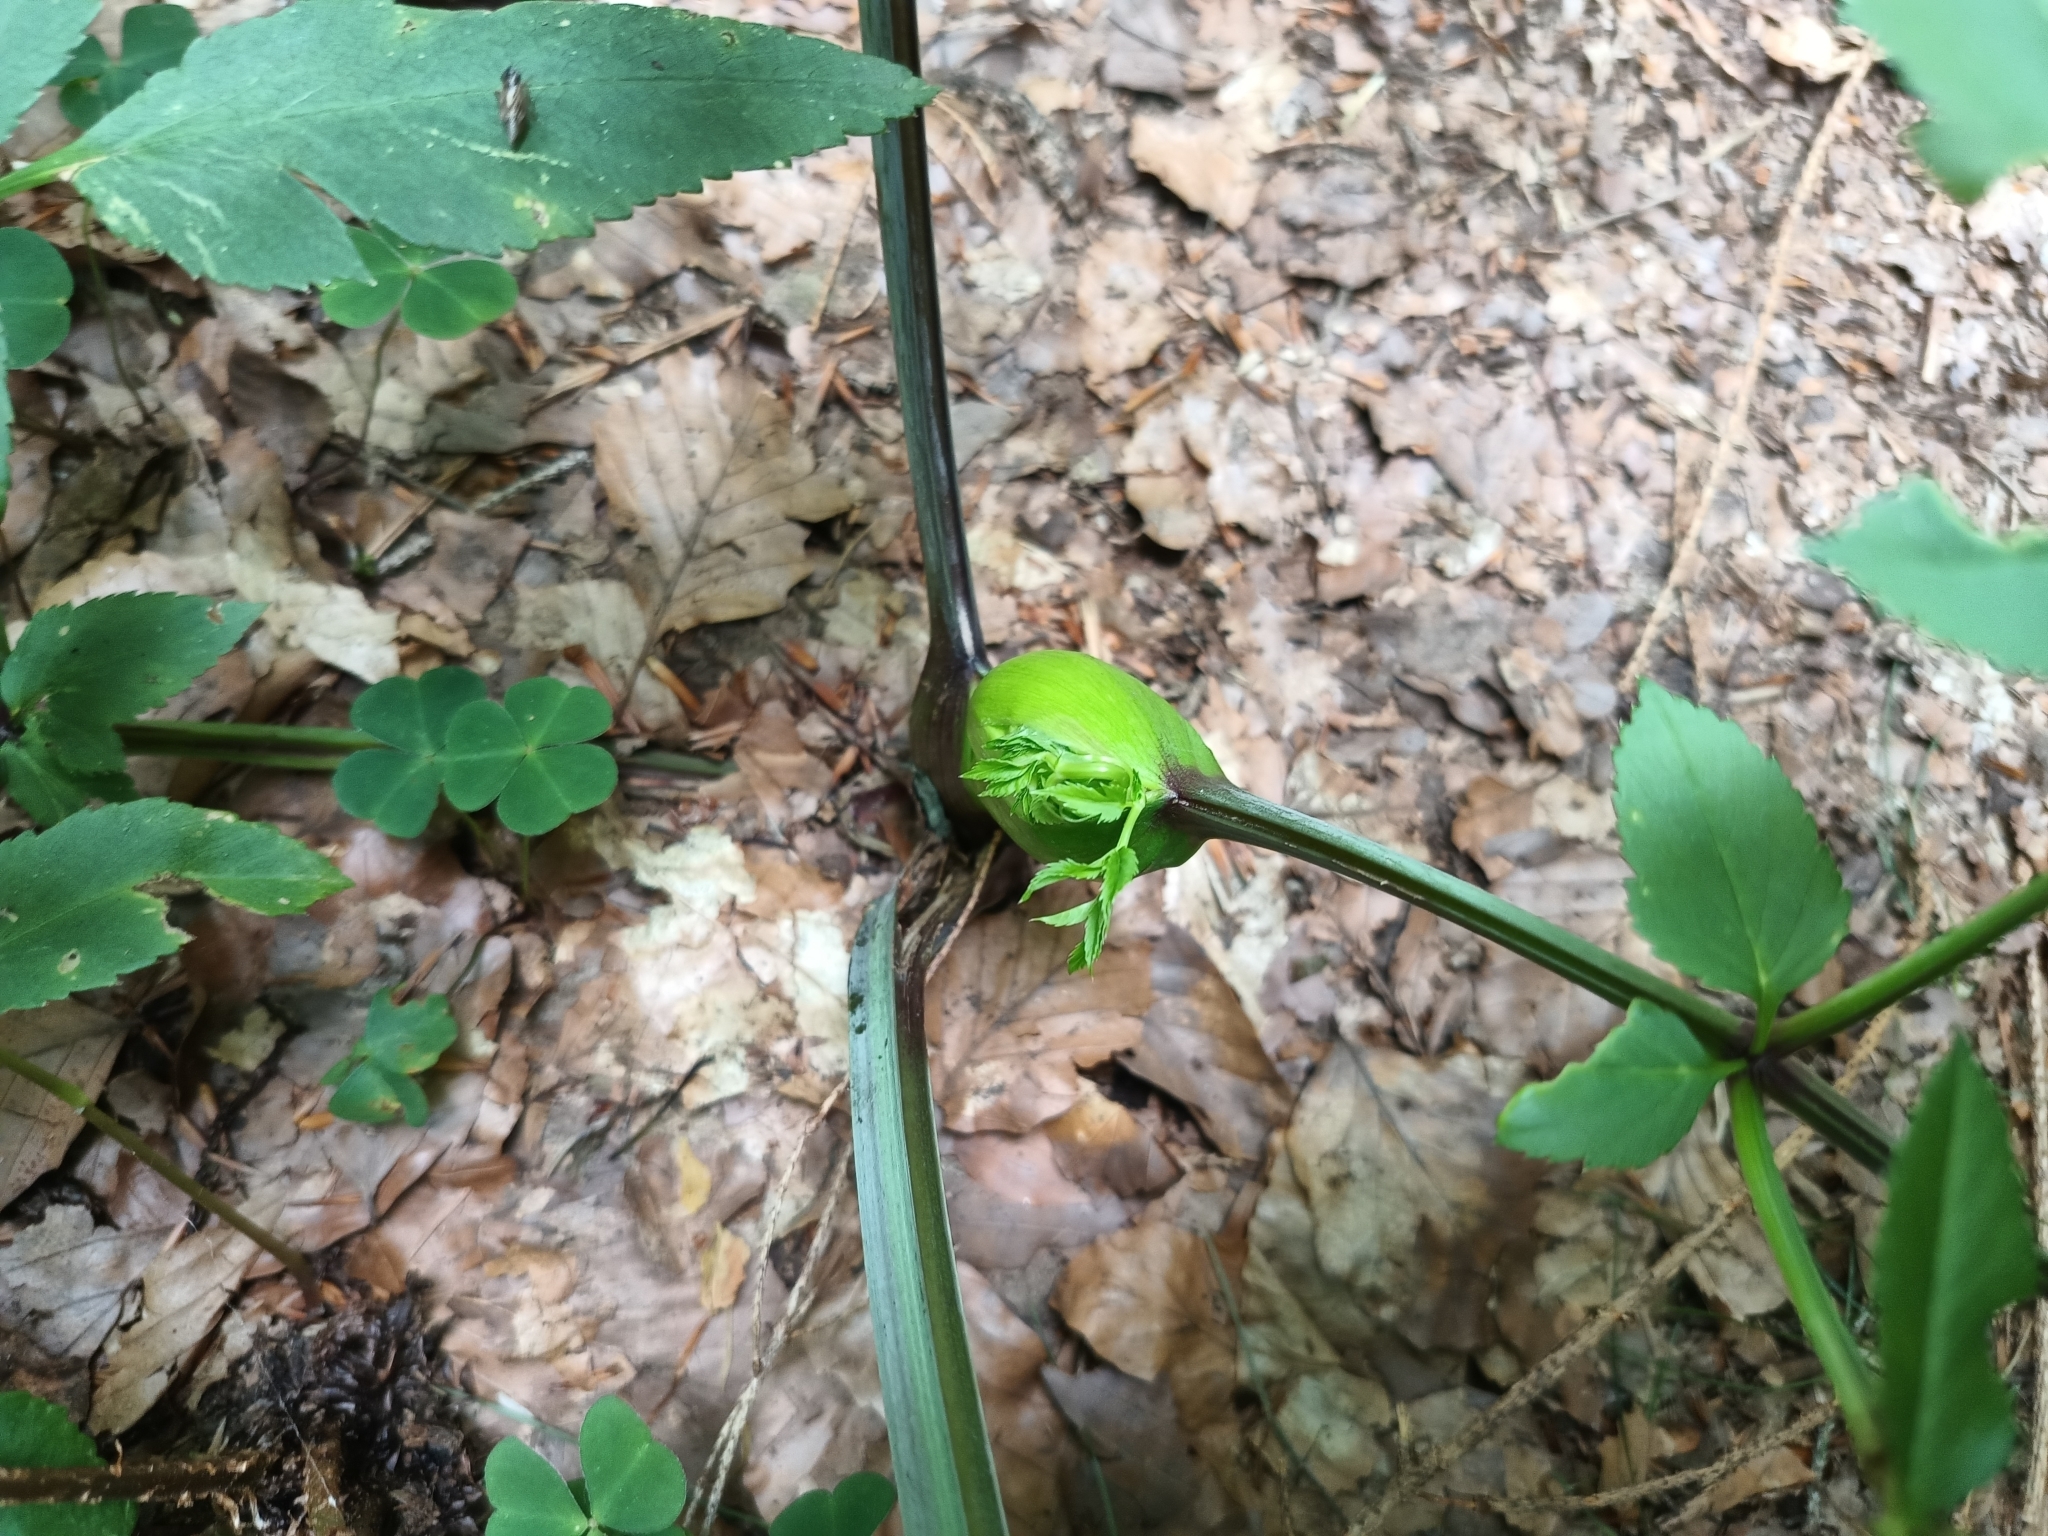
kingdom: Plantae
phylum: Tracheophyta
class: Magnoliopsida
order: Apiales
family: Apiaceae
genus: Angelica
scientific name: Angelica sylvestris
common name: Wild angelica
